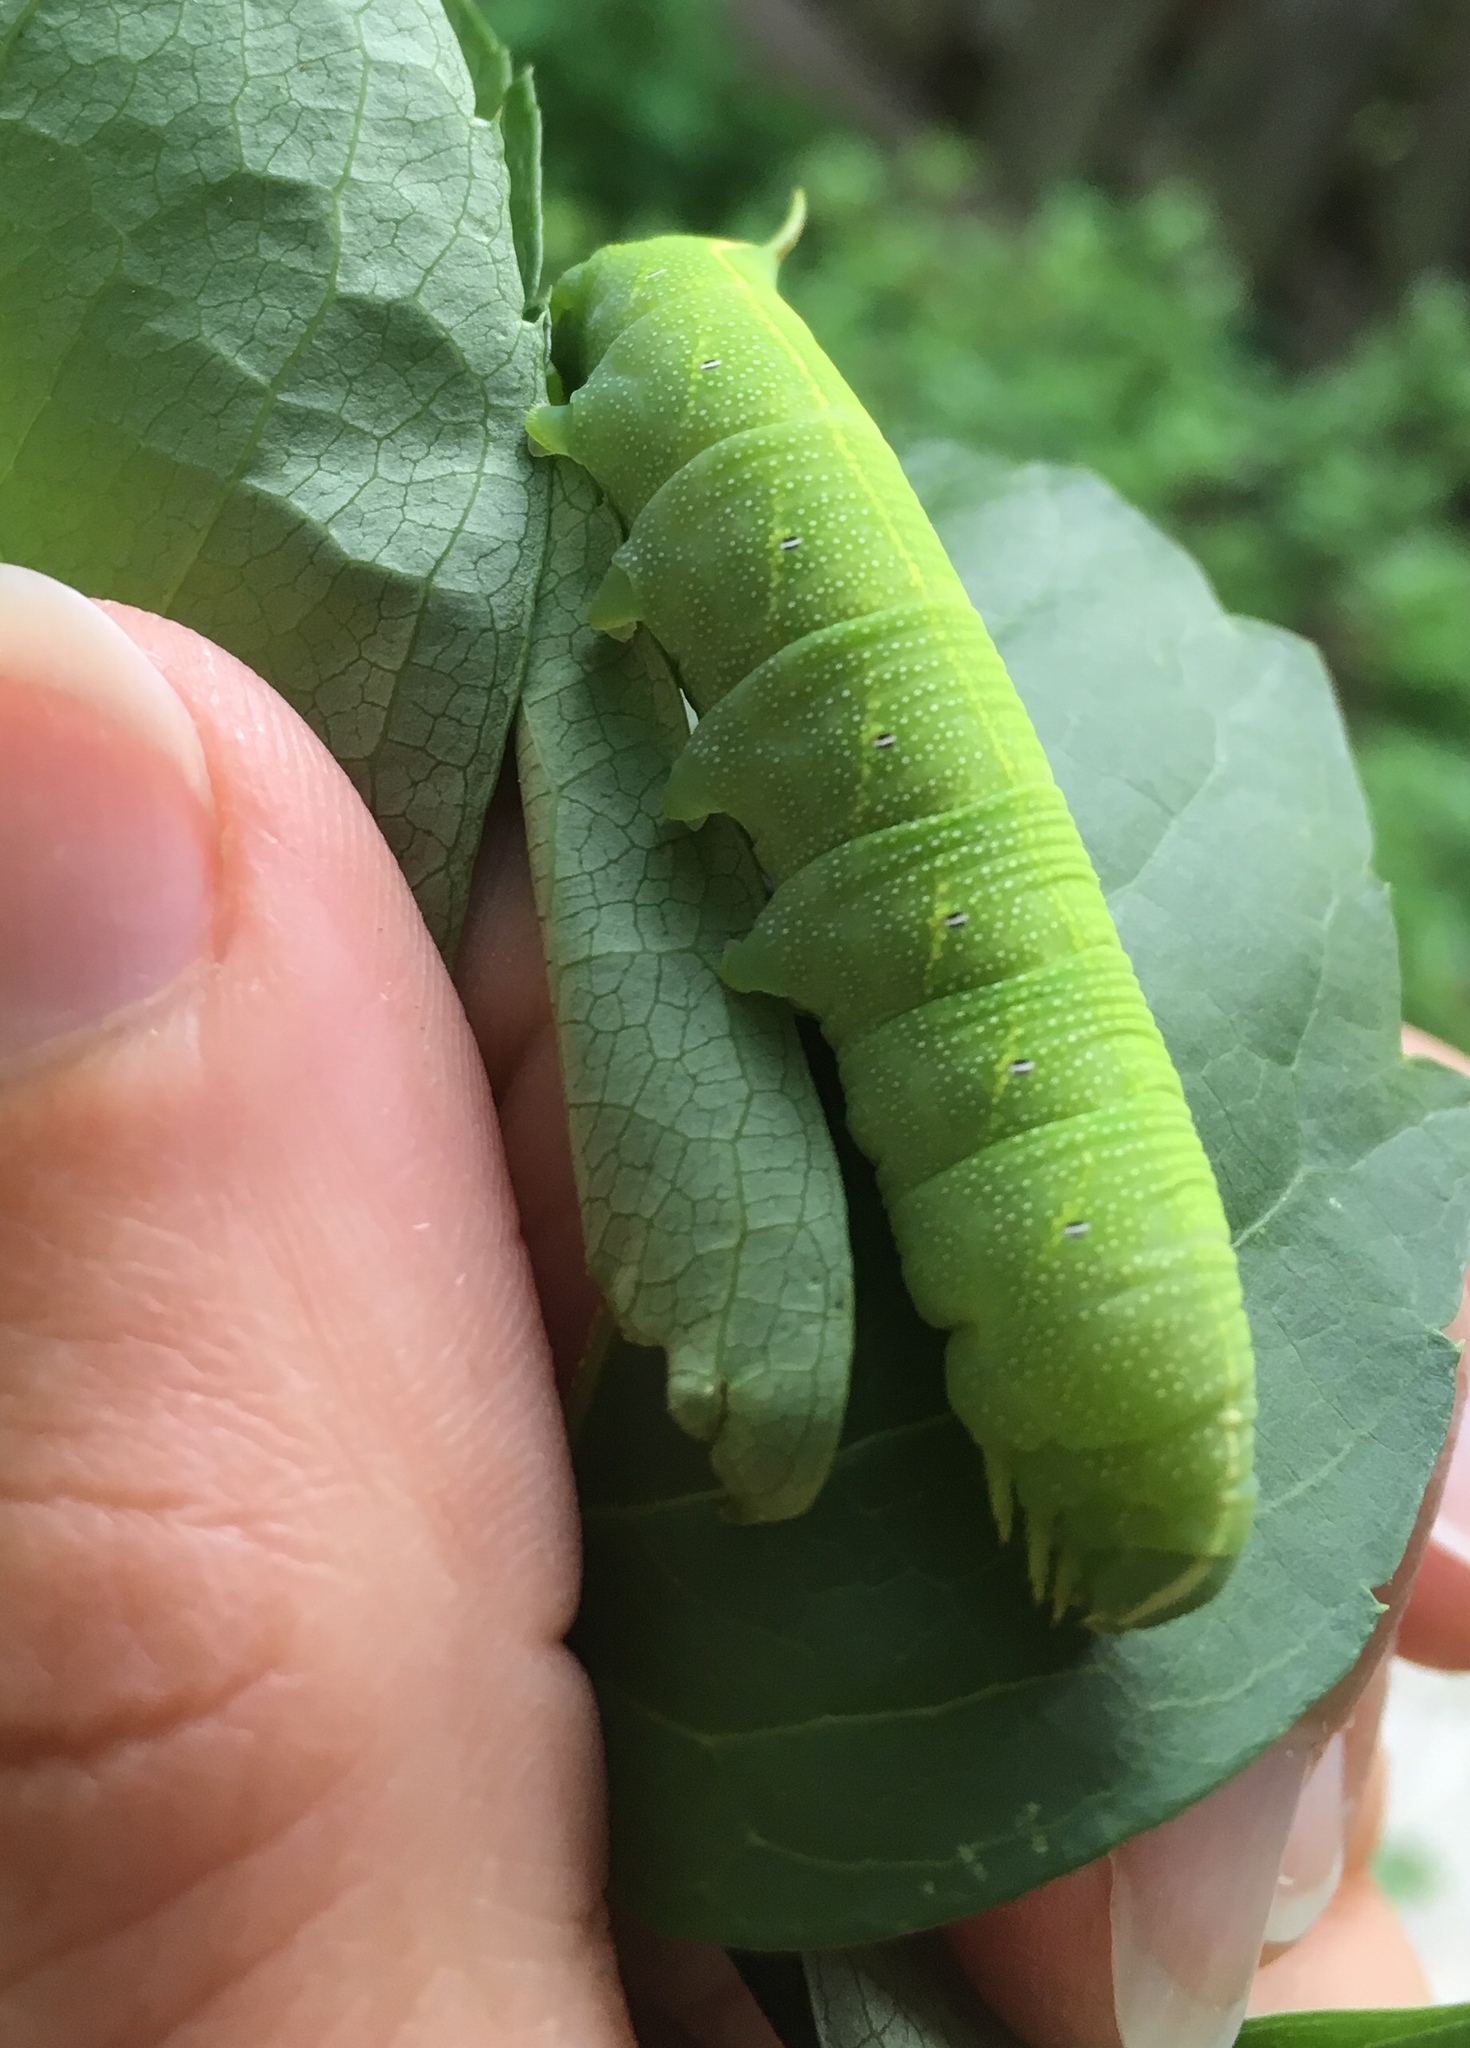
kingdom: Animalia
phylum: Arthropoda
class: Insecta
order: Lepidoptera
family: Sphingidae
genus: Deidamia
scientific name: Deidamia inscriptum
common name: Lettered sphinx
